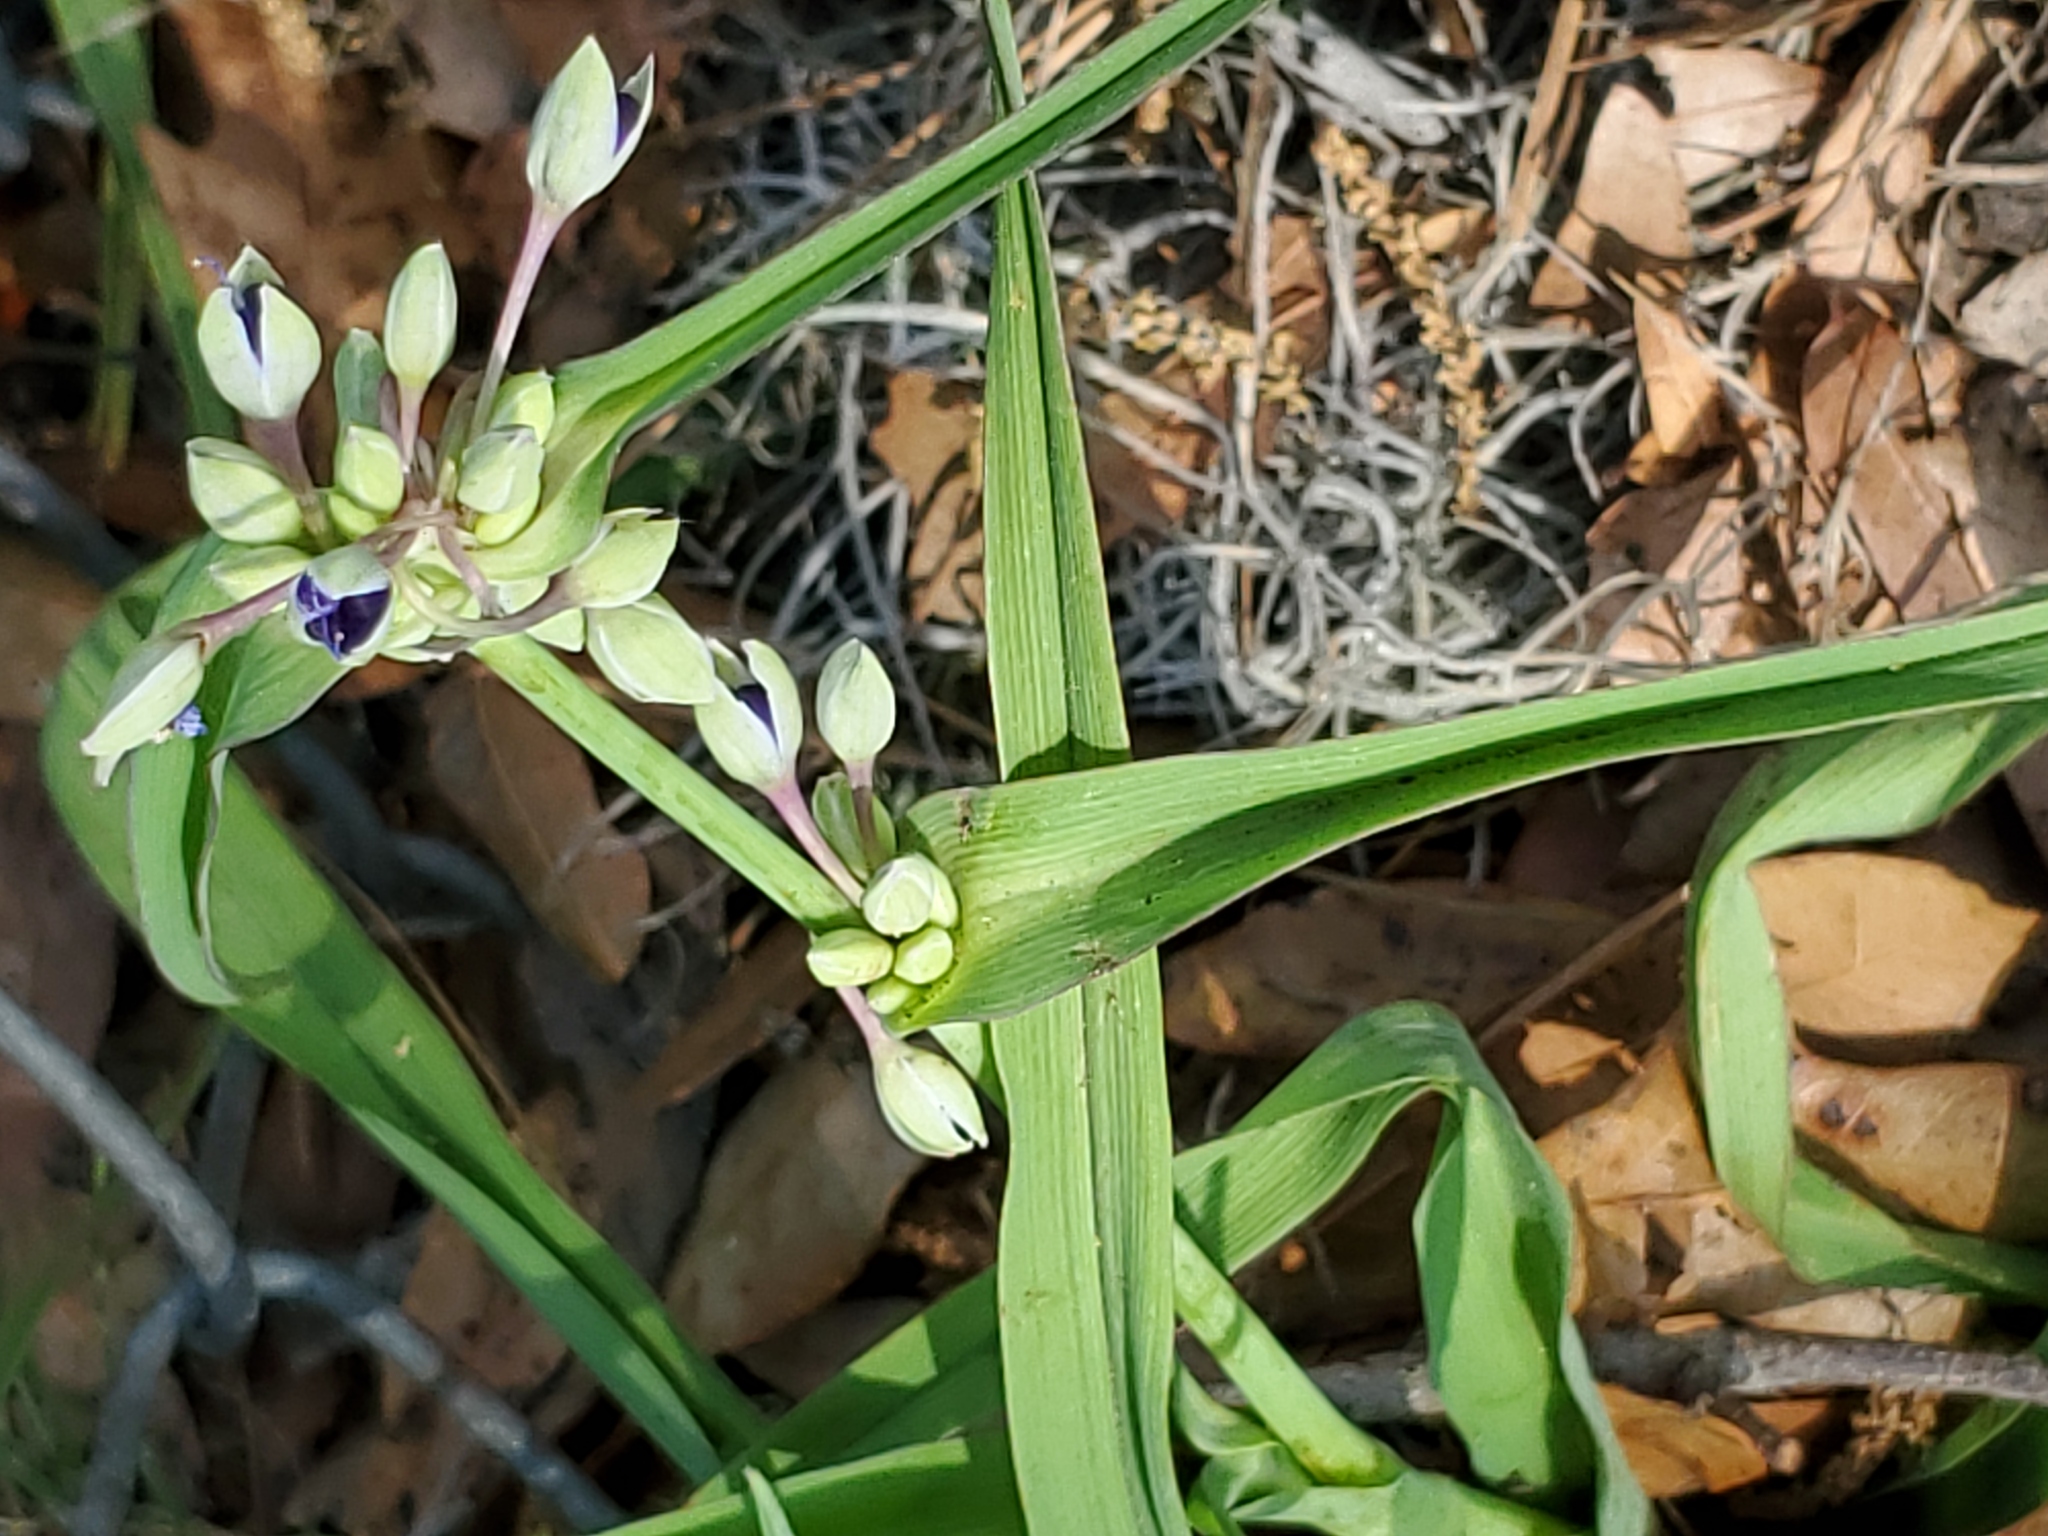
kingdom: Plantae
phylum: Tracheophyta
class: Liliopsida
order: Commelinales
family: Commelinaceae
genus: Tradescantia
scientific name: Tradescantia ohiensis
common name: Ohio spiderwort
